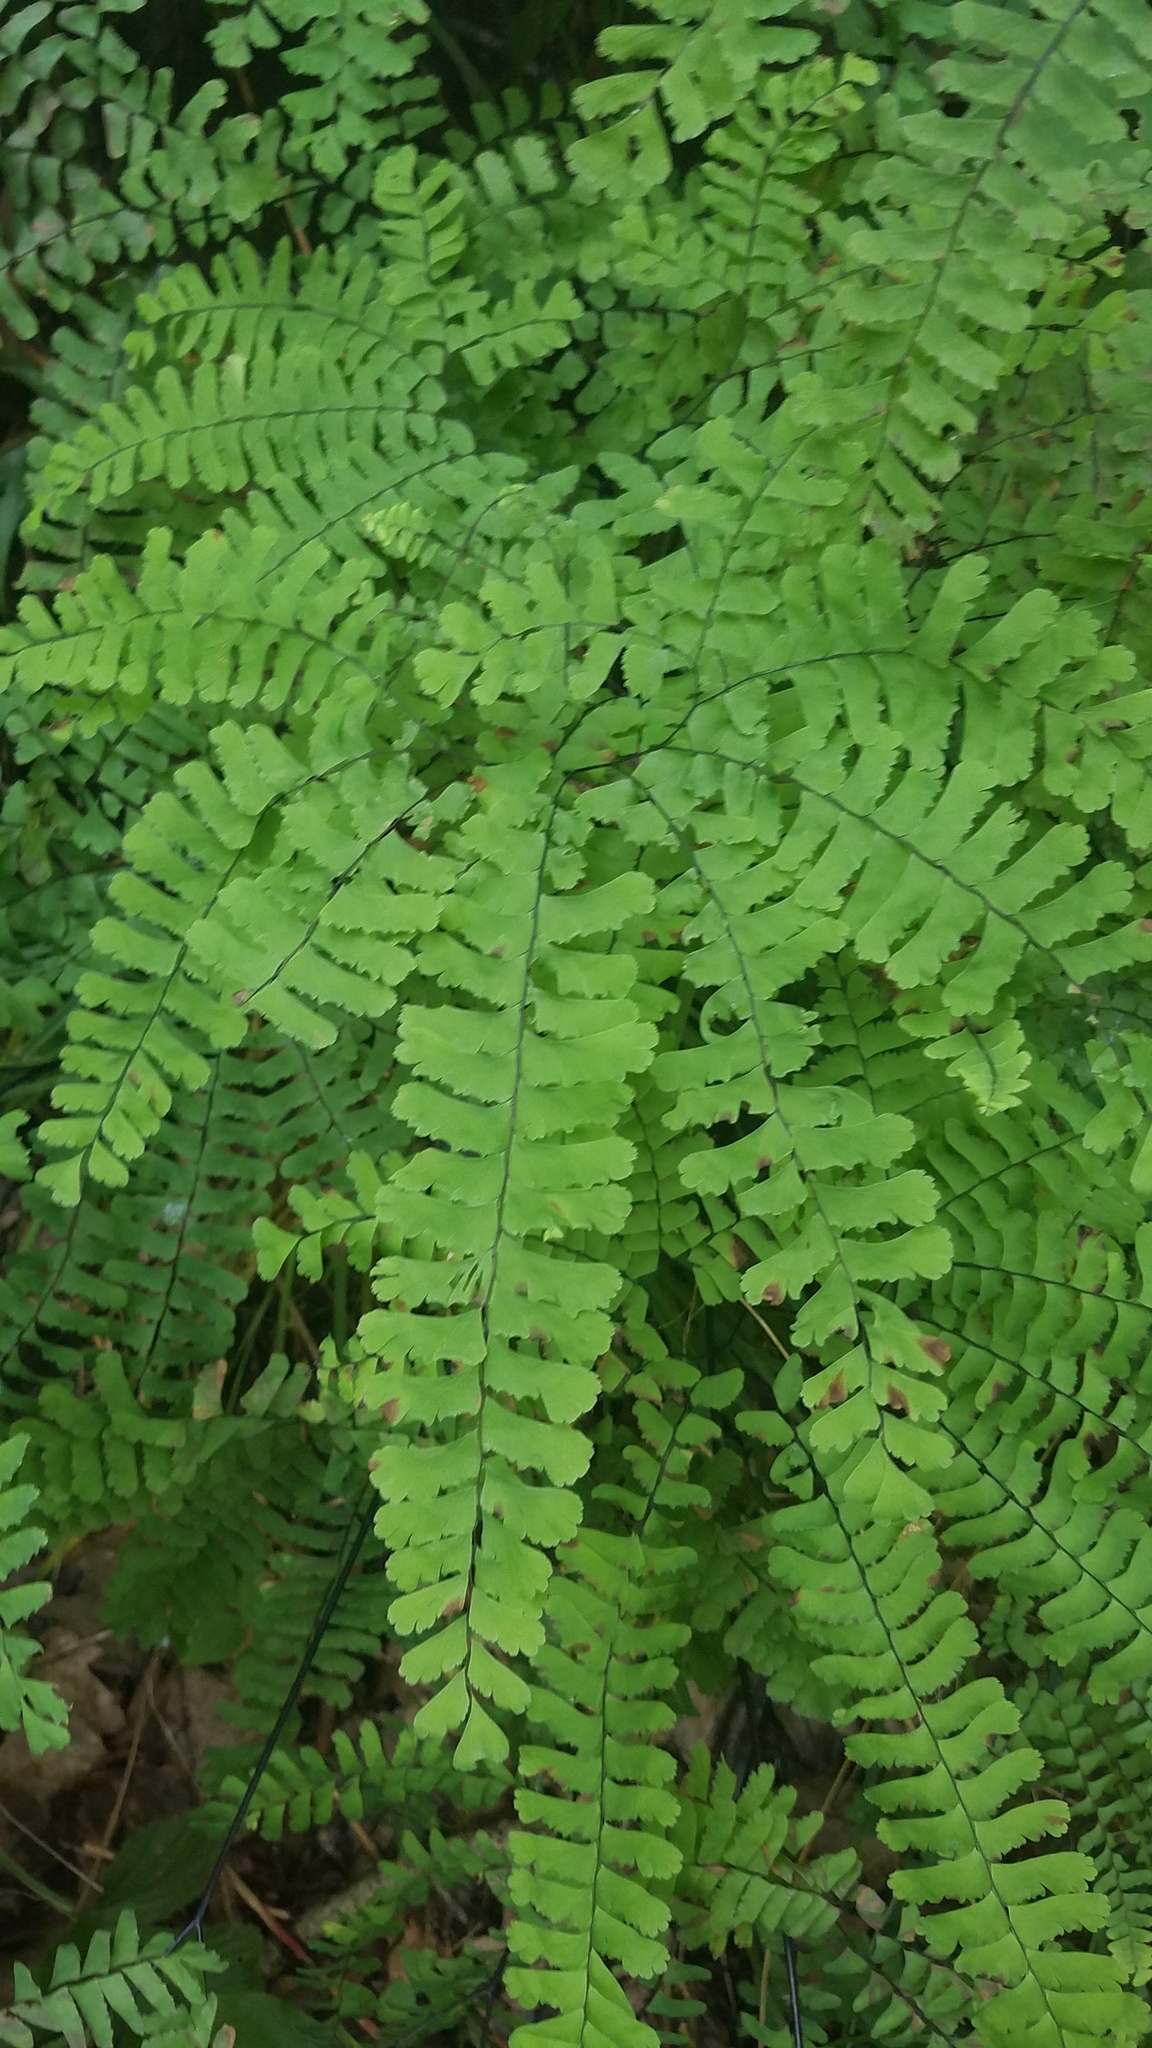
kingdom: Plantae
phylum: Tracheophyta
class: Polypodiopsida
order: Polypodiales
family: Pteridaceae
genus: Adiantum
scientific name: Adiantum pedatum
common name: Five-finger fern
